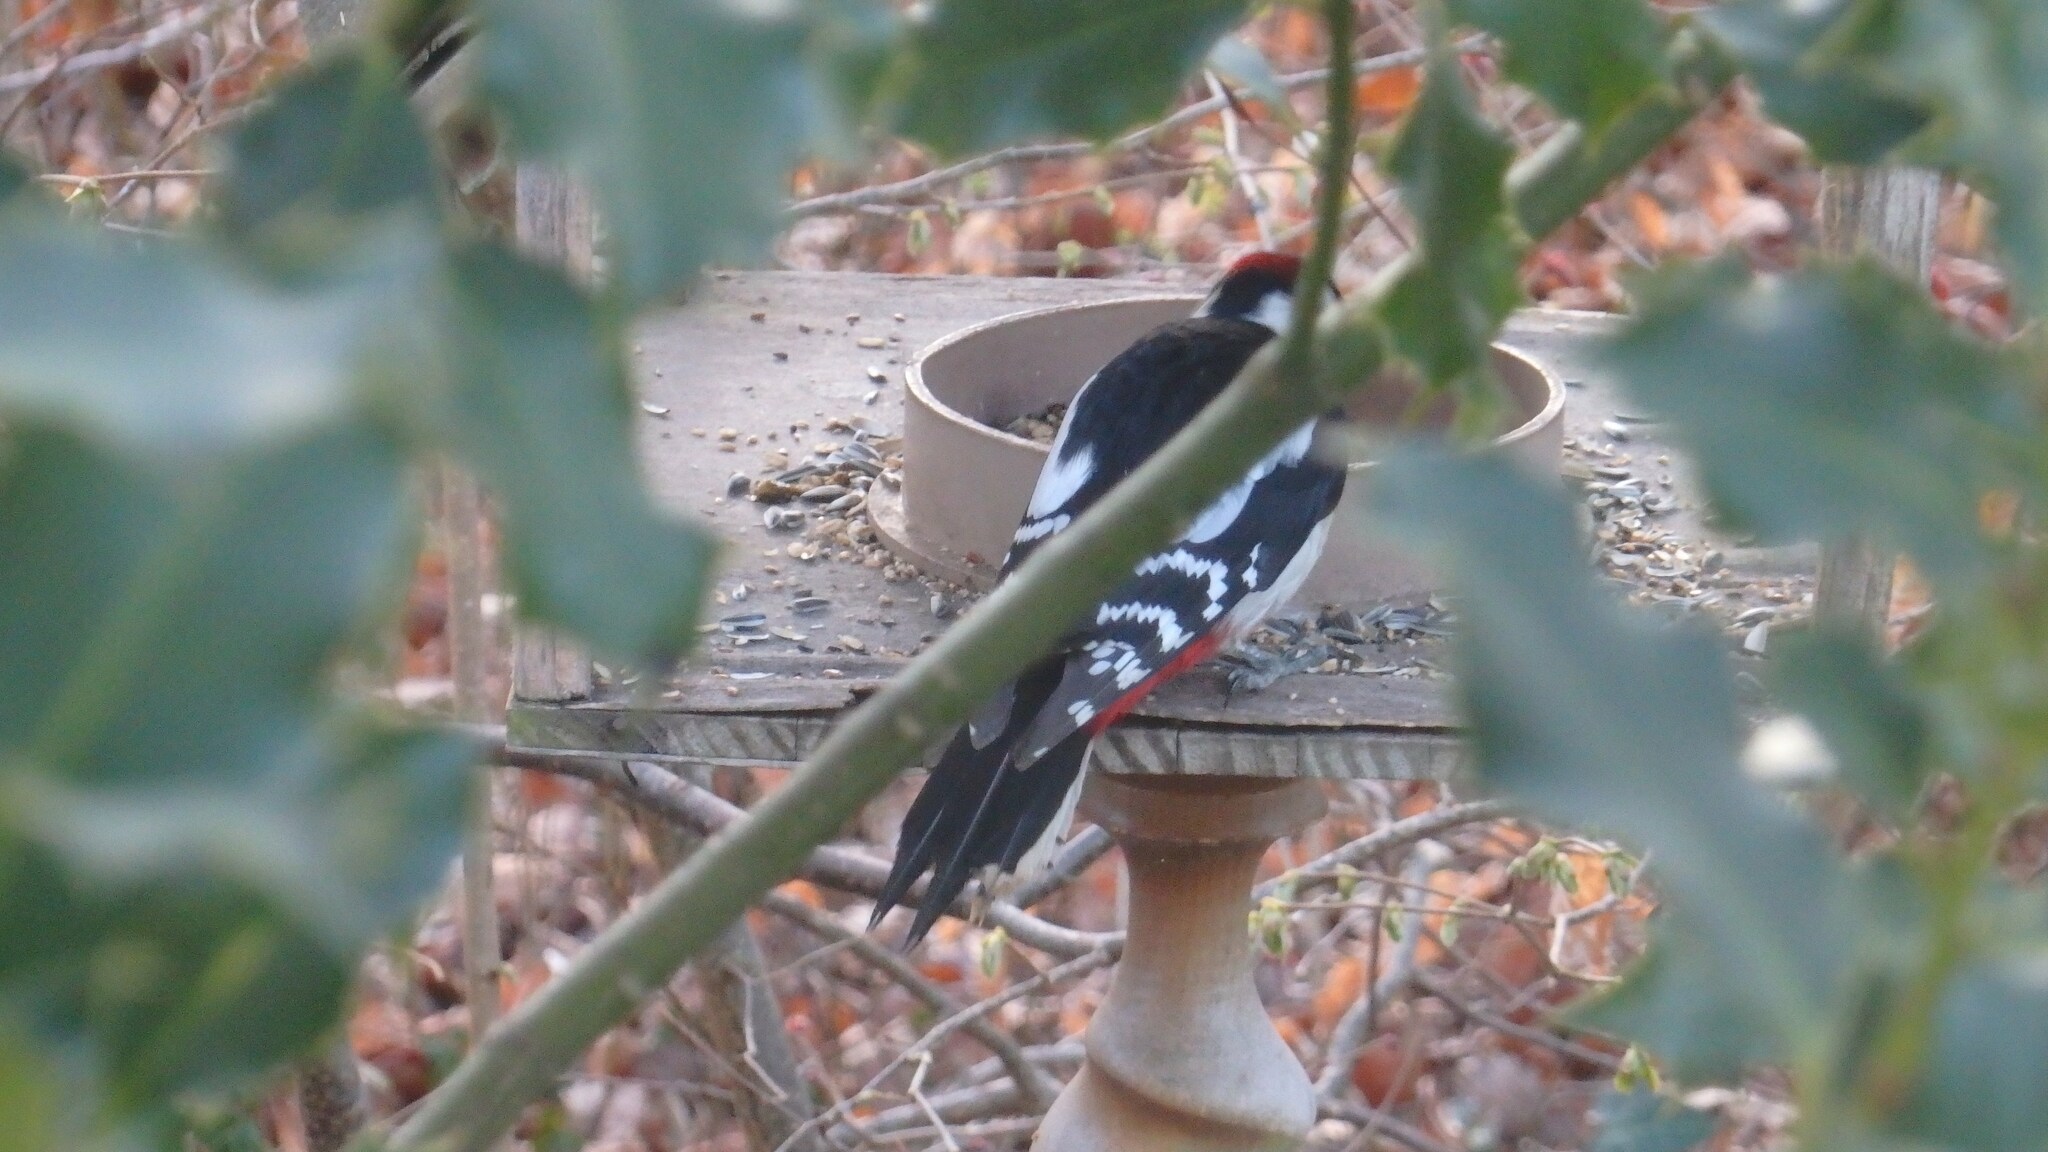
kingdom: Animalia
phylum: Chordata
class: Aves
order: Piciformes
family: Picidae
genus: Dendrocopos
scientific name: Dendrocopos major
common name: Great spotted woodpecker
